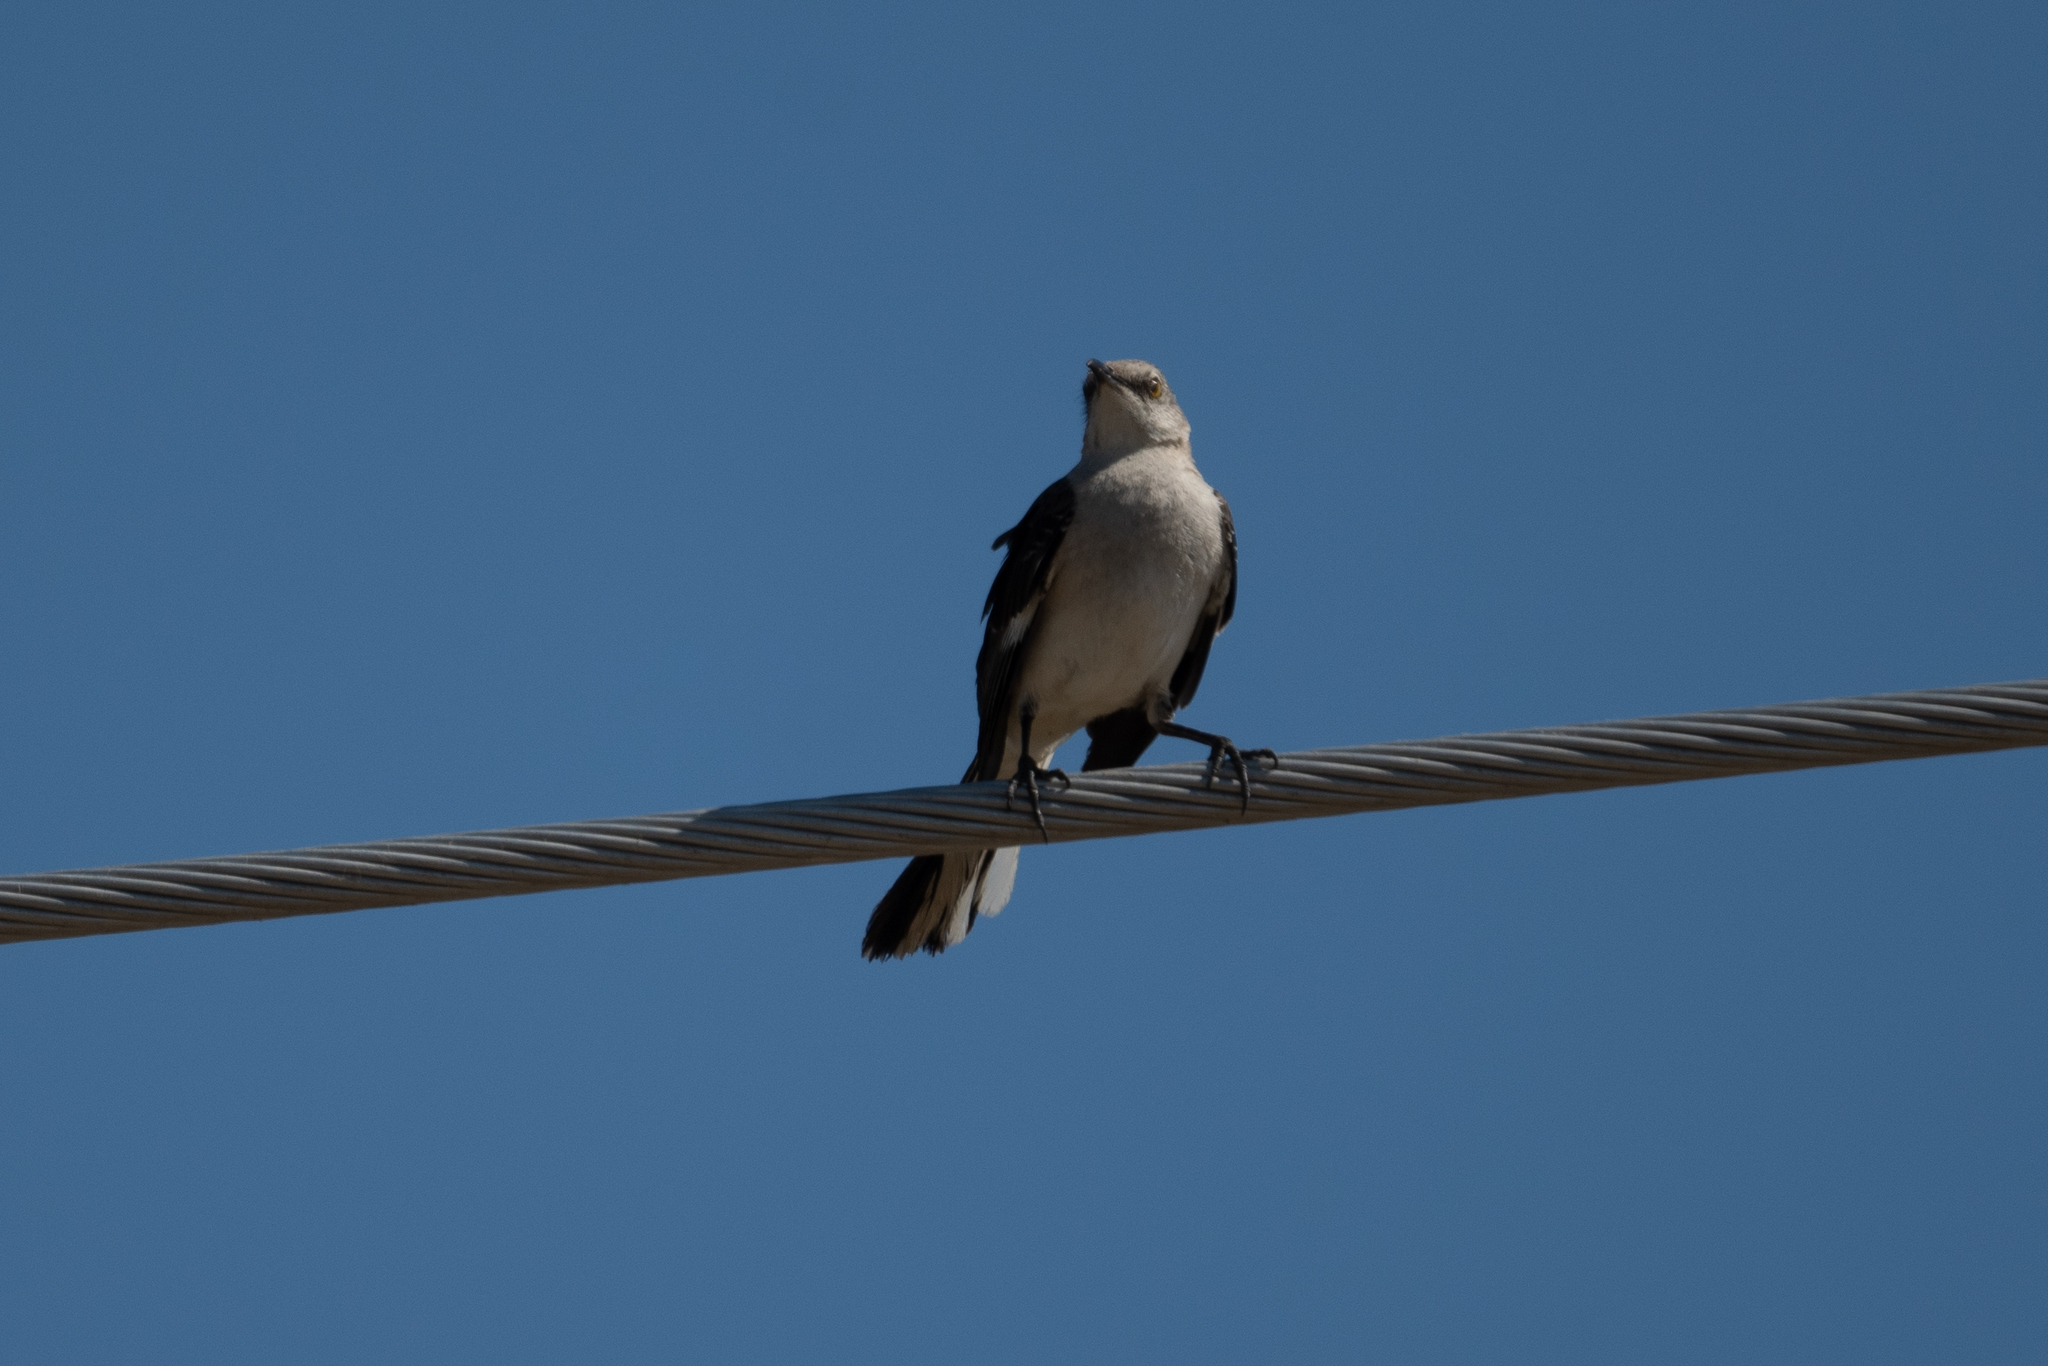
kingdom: Animalia
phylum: Chordata
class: Aves
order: Passeriformes
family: Mimidae
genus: Mimus
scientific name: Mimus polyglottos
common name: Northern mockingbird
